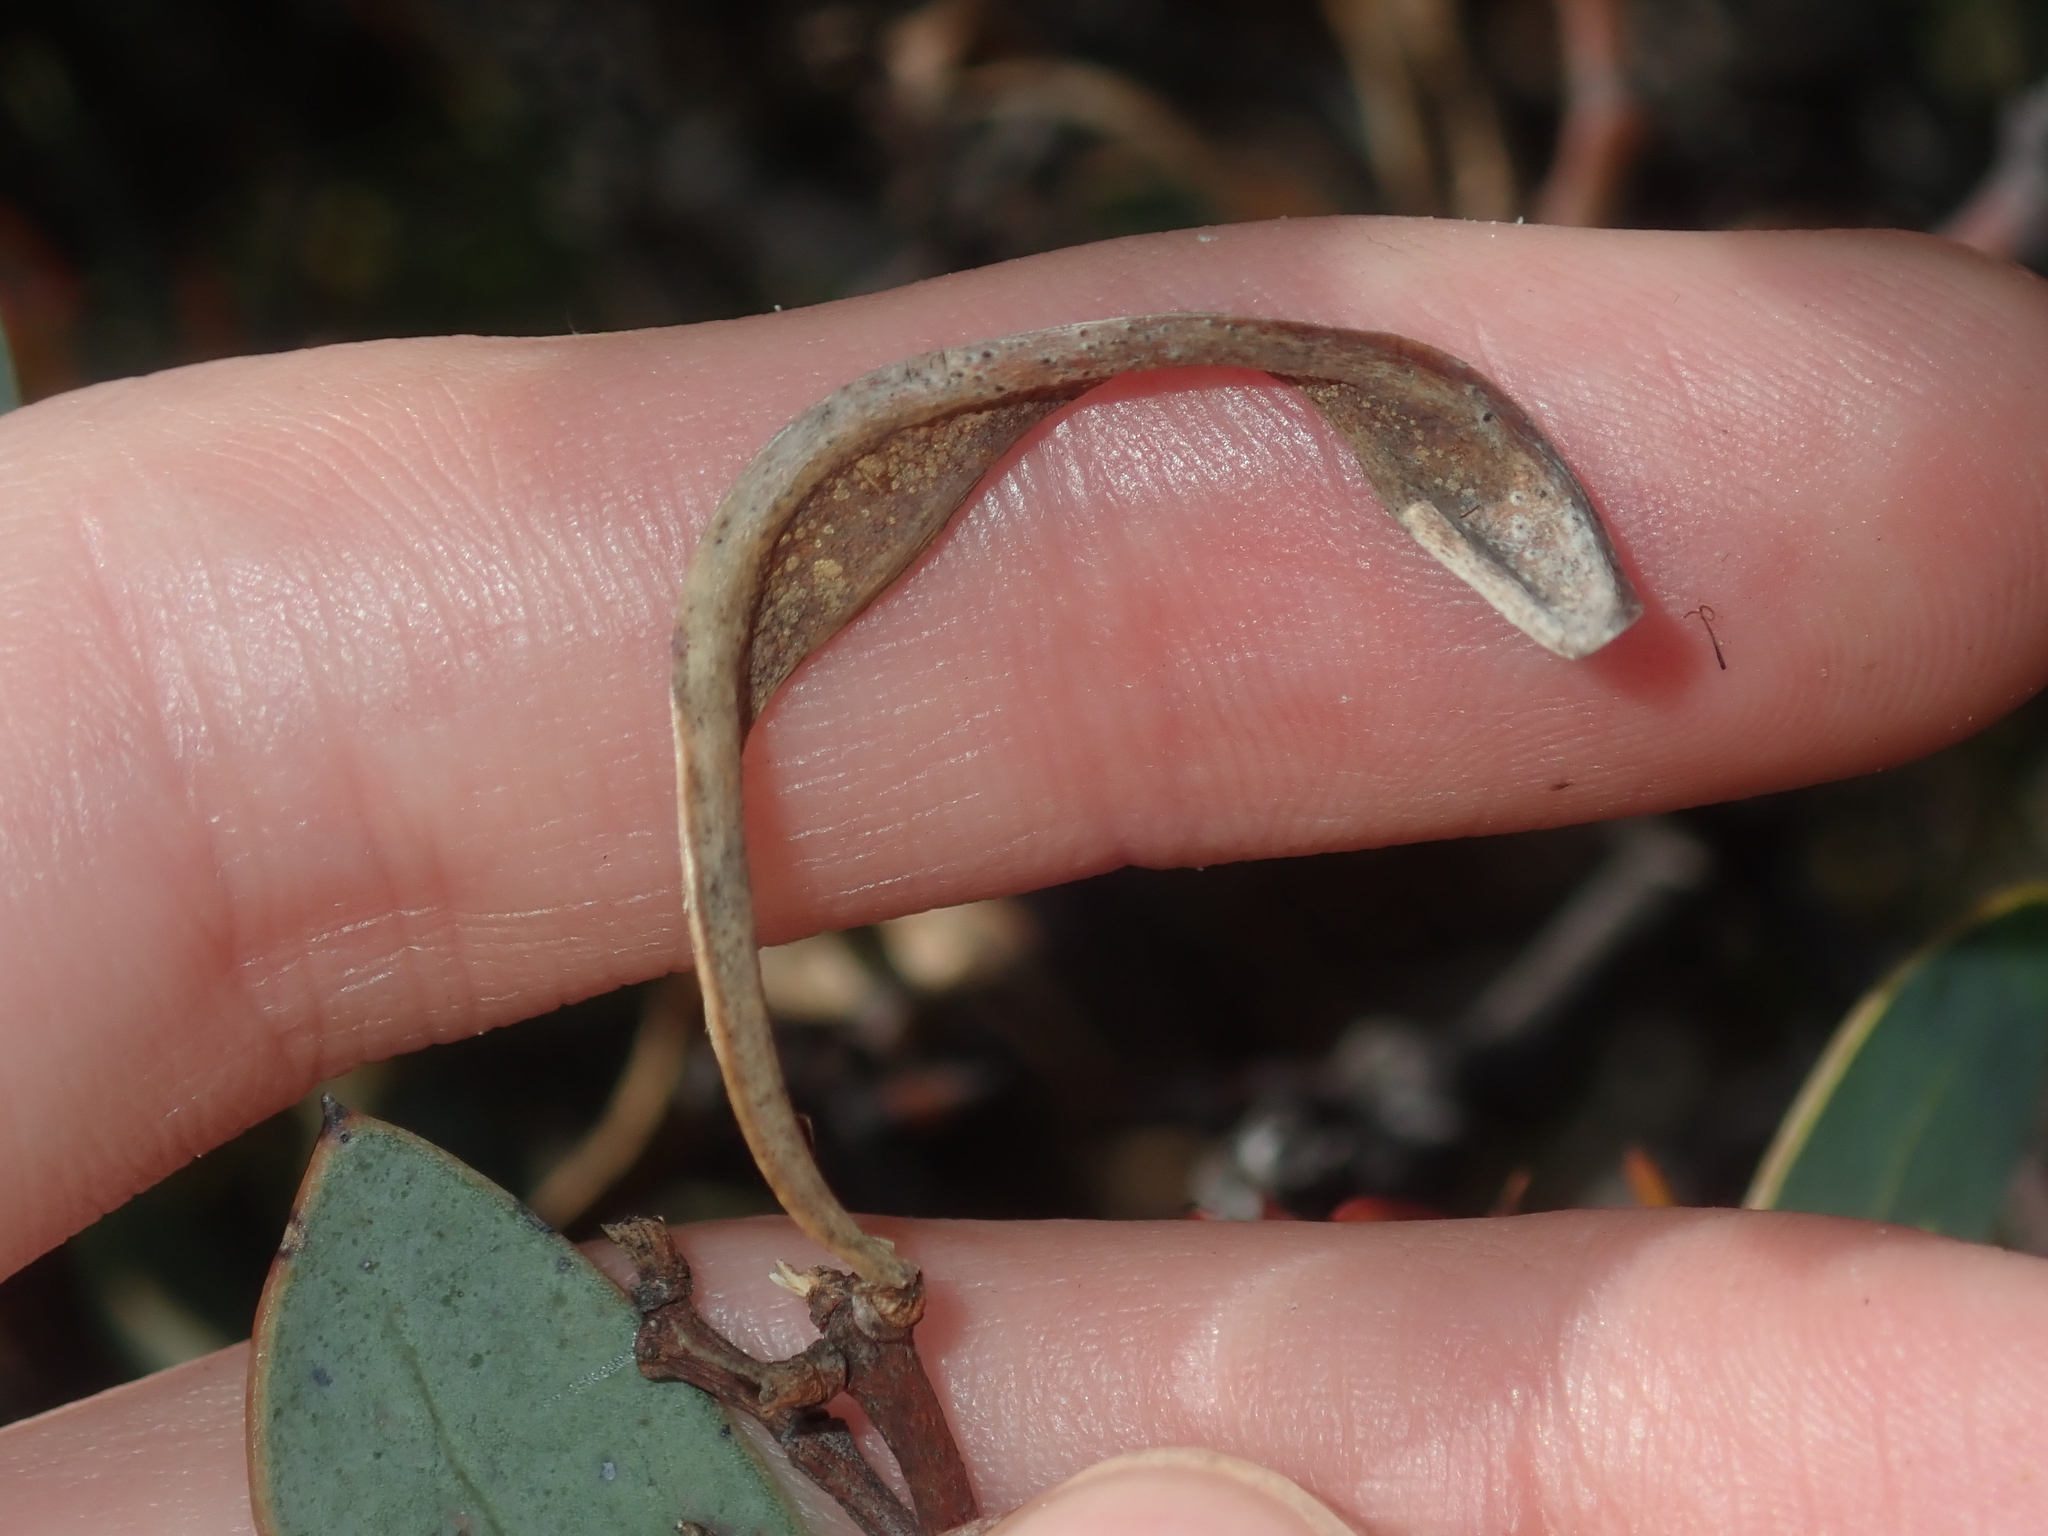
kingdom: Plantae
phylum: Tracheophyta
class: Magnoliopsida
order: Fabales
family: Fabaceae
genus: Acacia
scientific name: Acacia clydonophora
